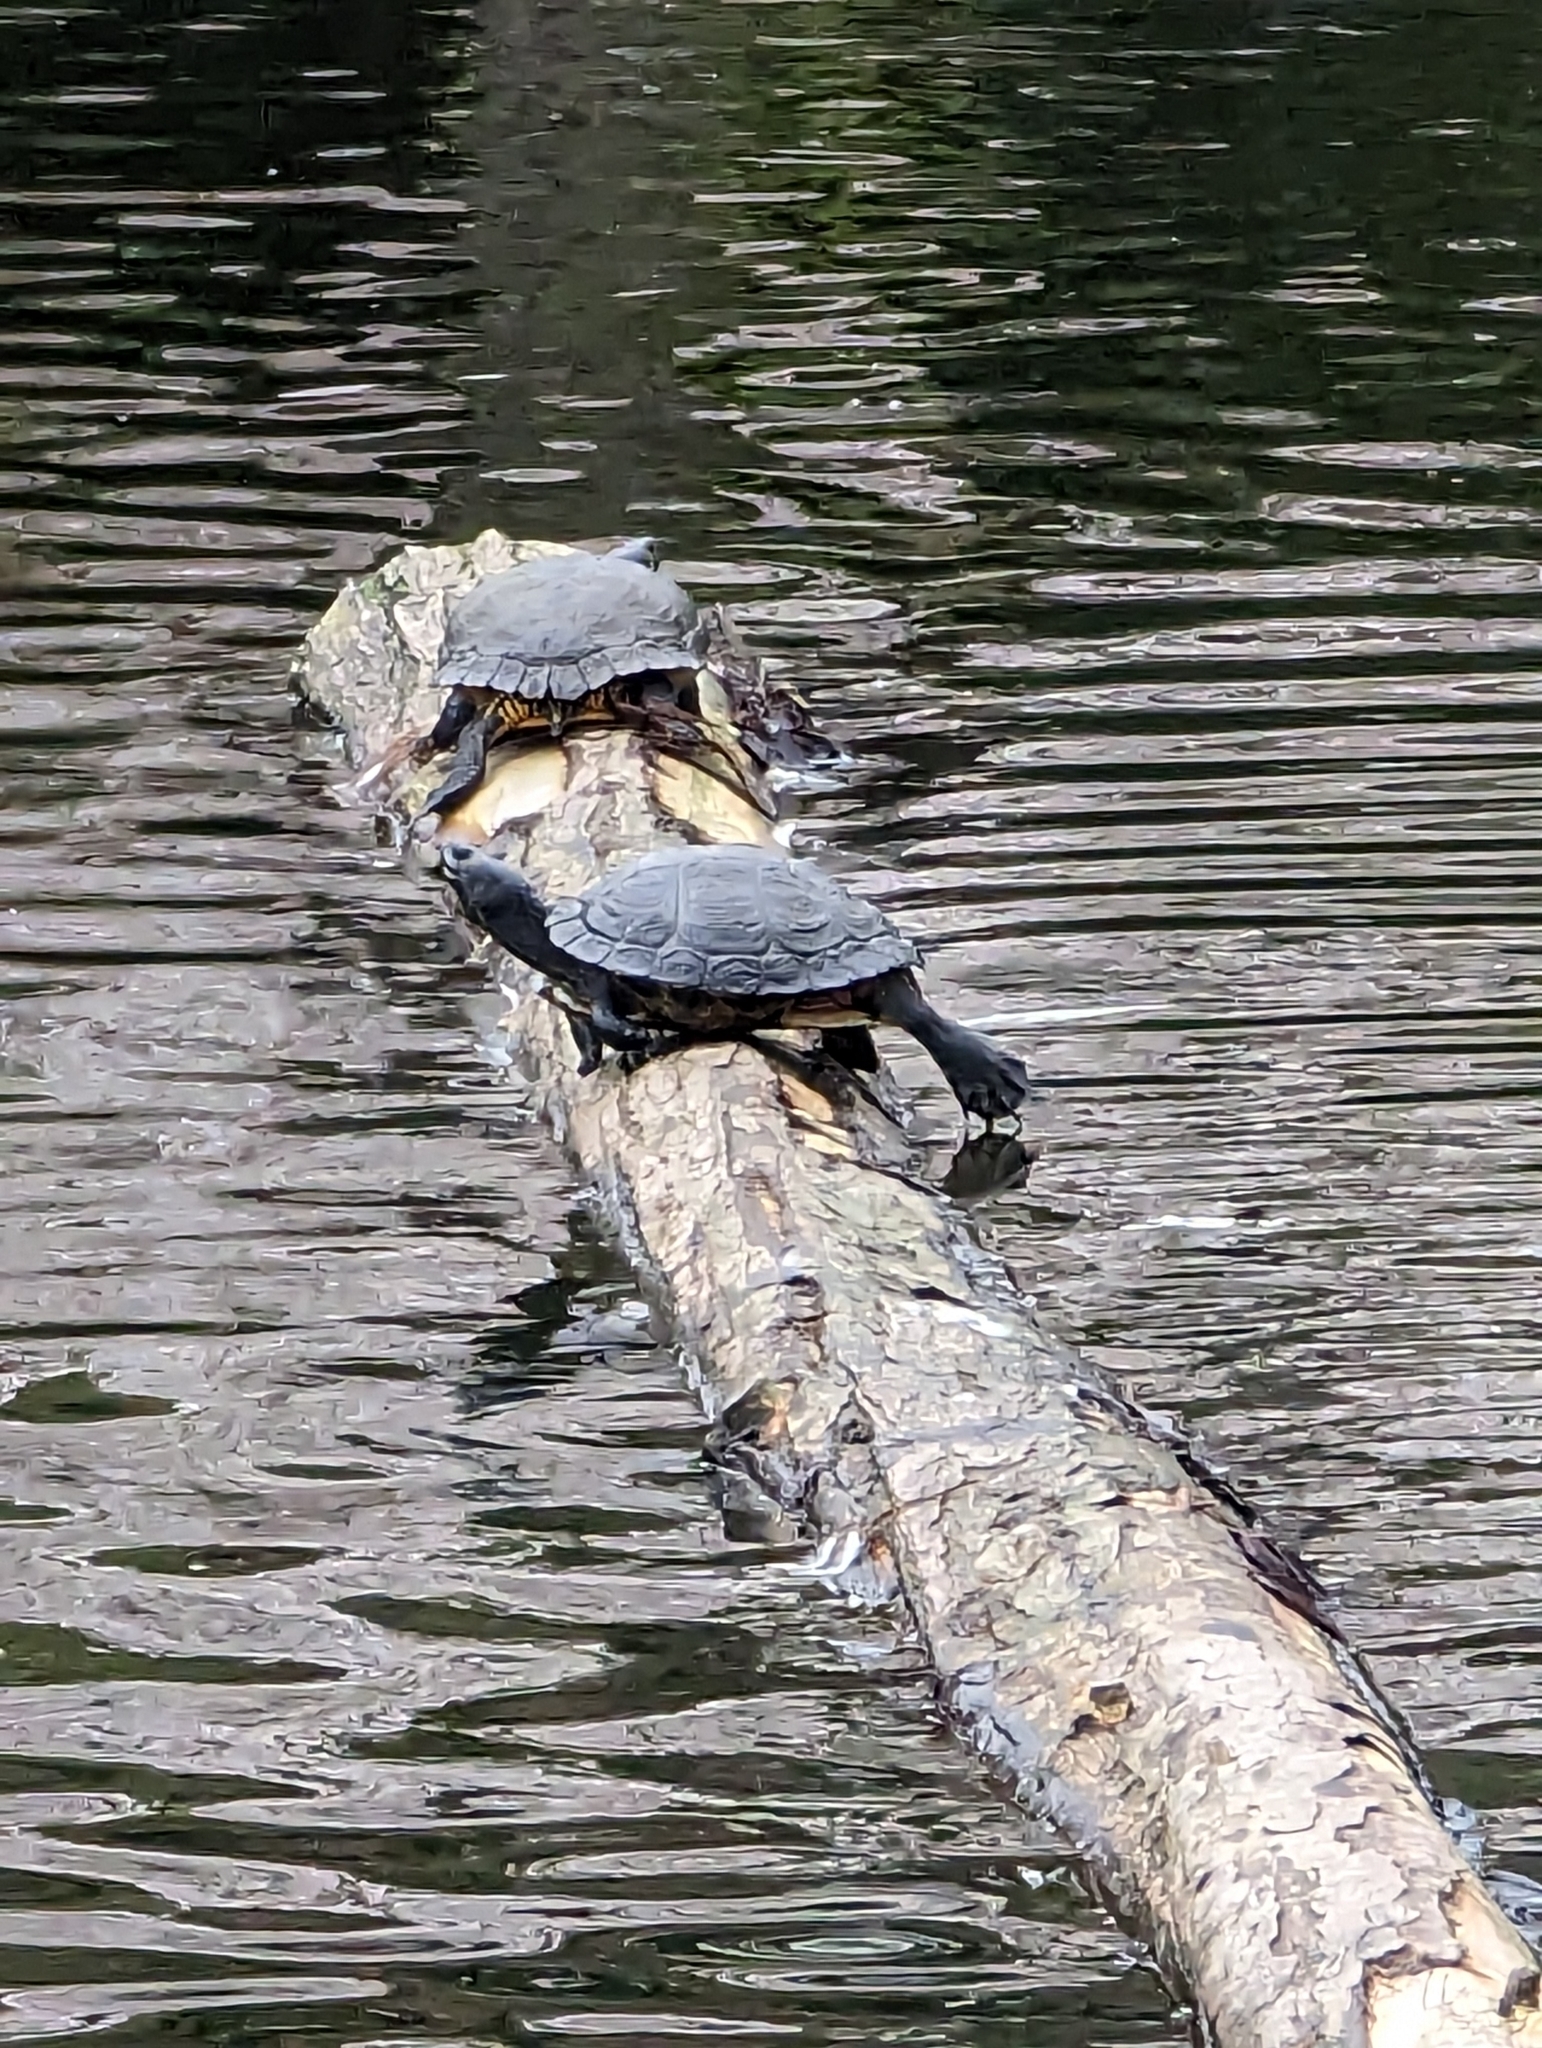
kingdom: Animalia
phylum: Chordata
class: Testudines
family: Emydidae
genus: Trachemys
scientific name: Trachemys scripta
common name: Slider
